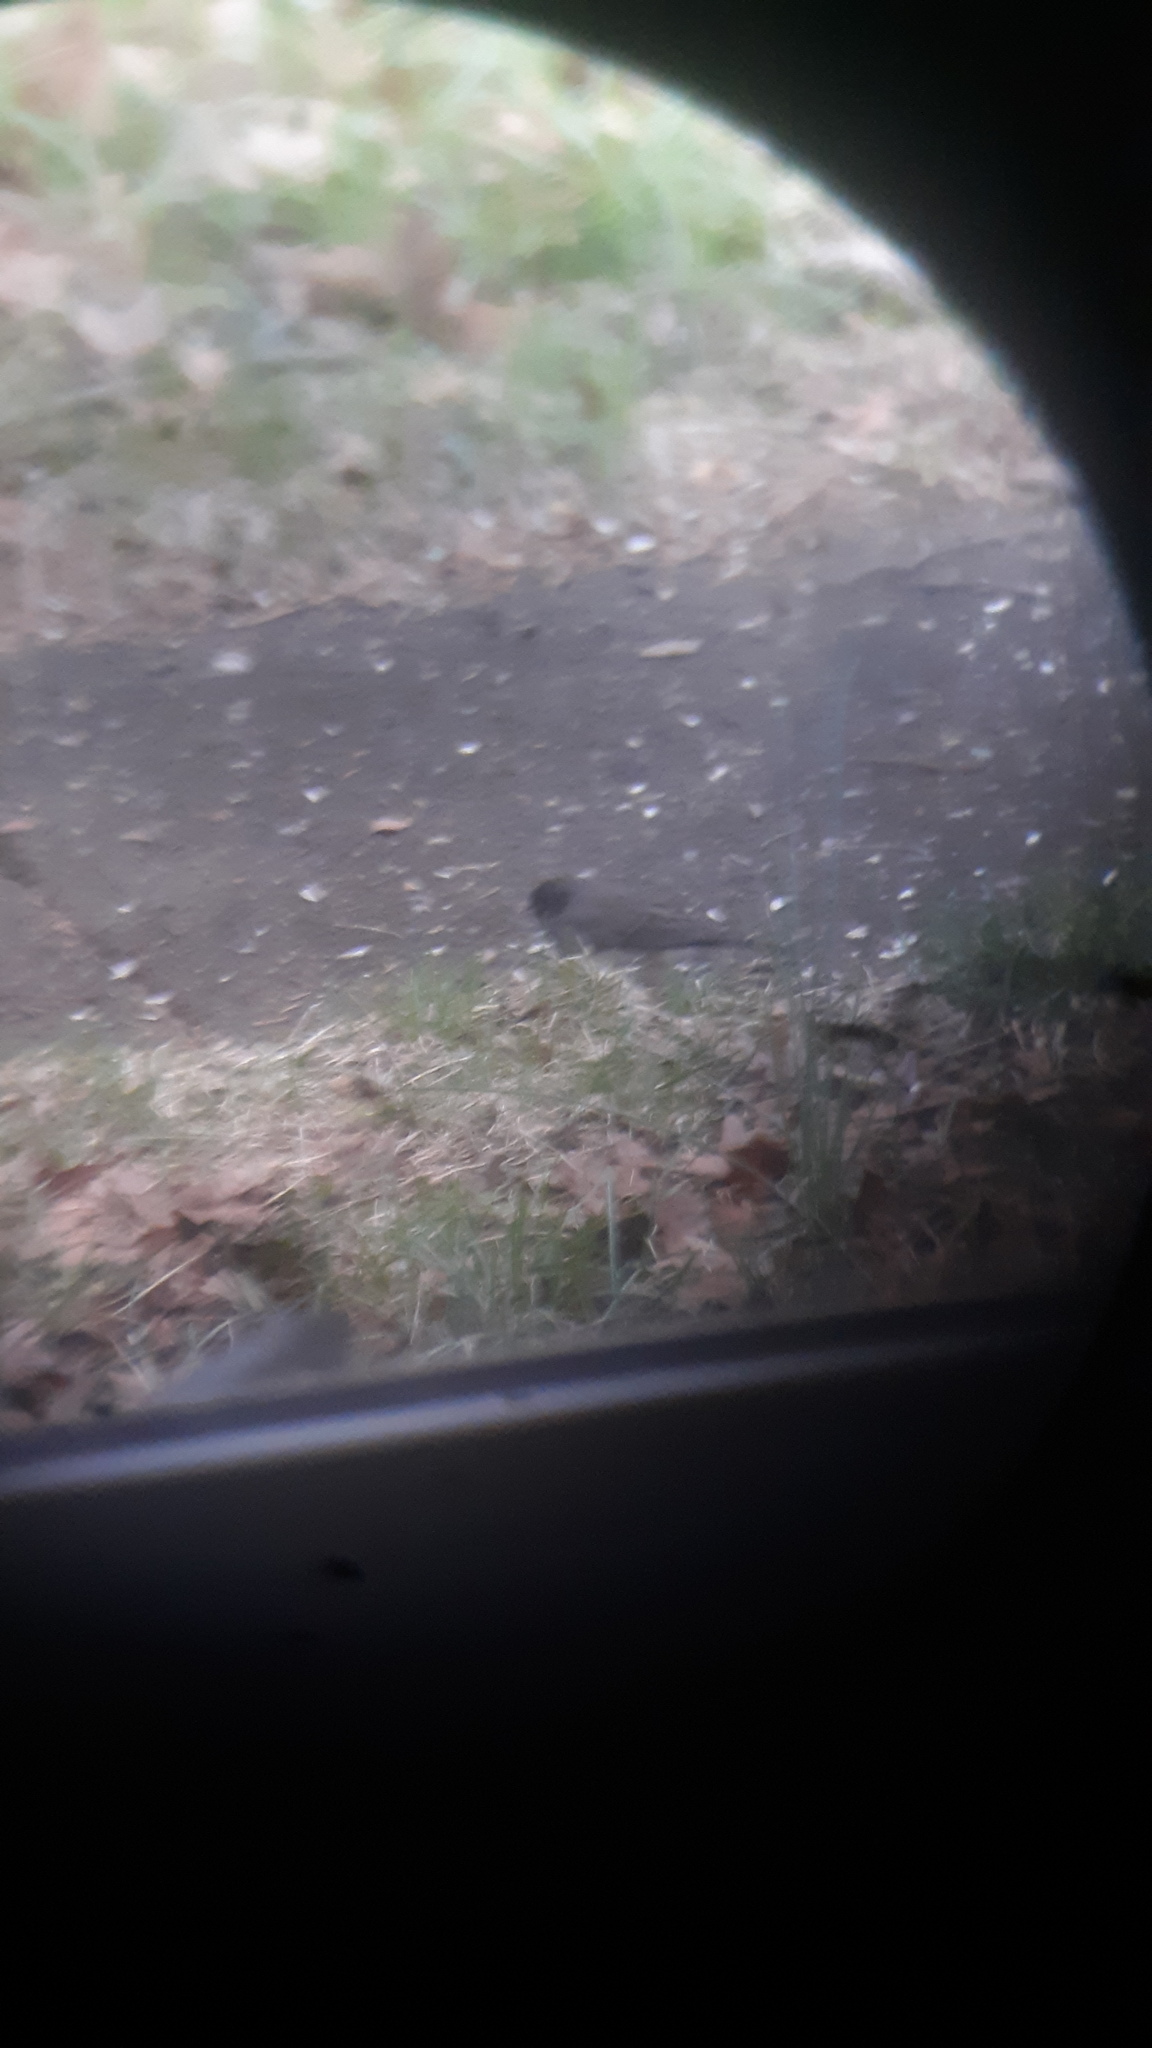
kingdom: Animalia
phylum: Chordata
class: Aves
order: Passeriformes
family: Passerellidae
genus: Junco
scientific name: Junco hyemalis
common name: Dark-eyed junco
